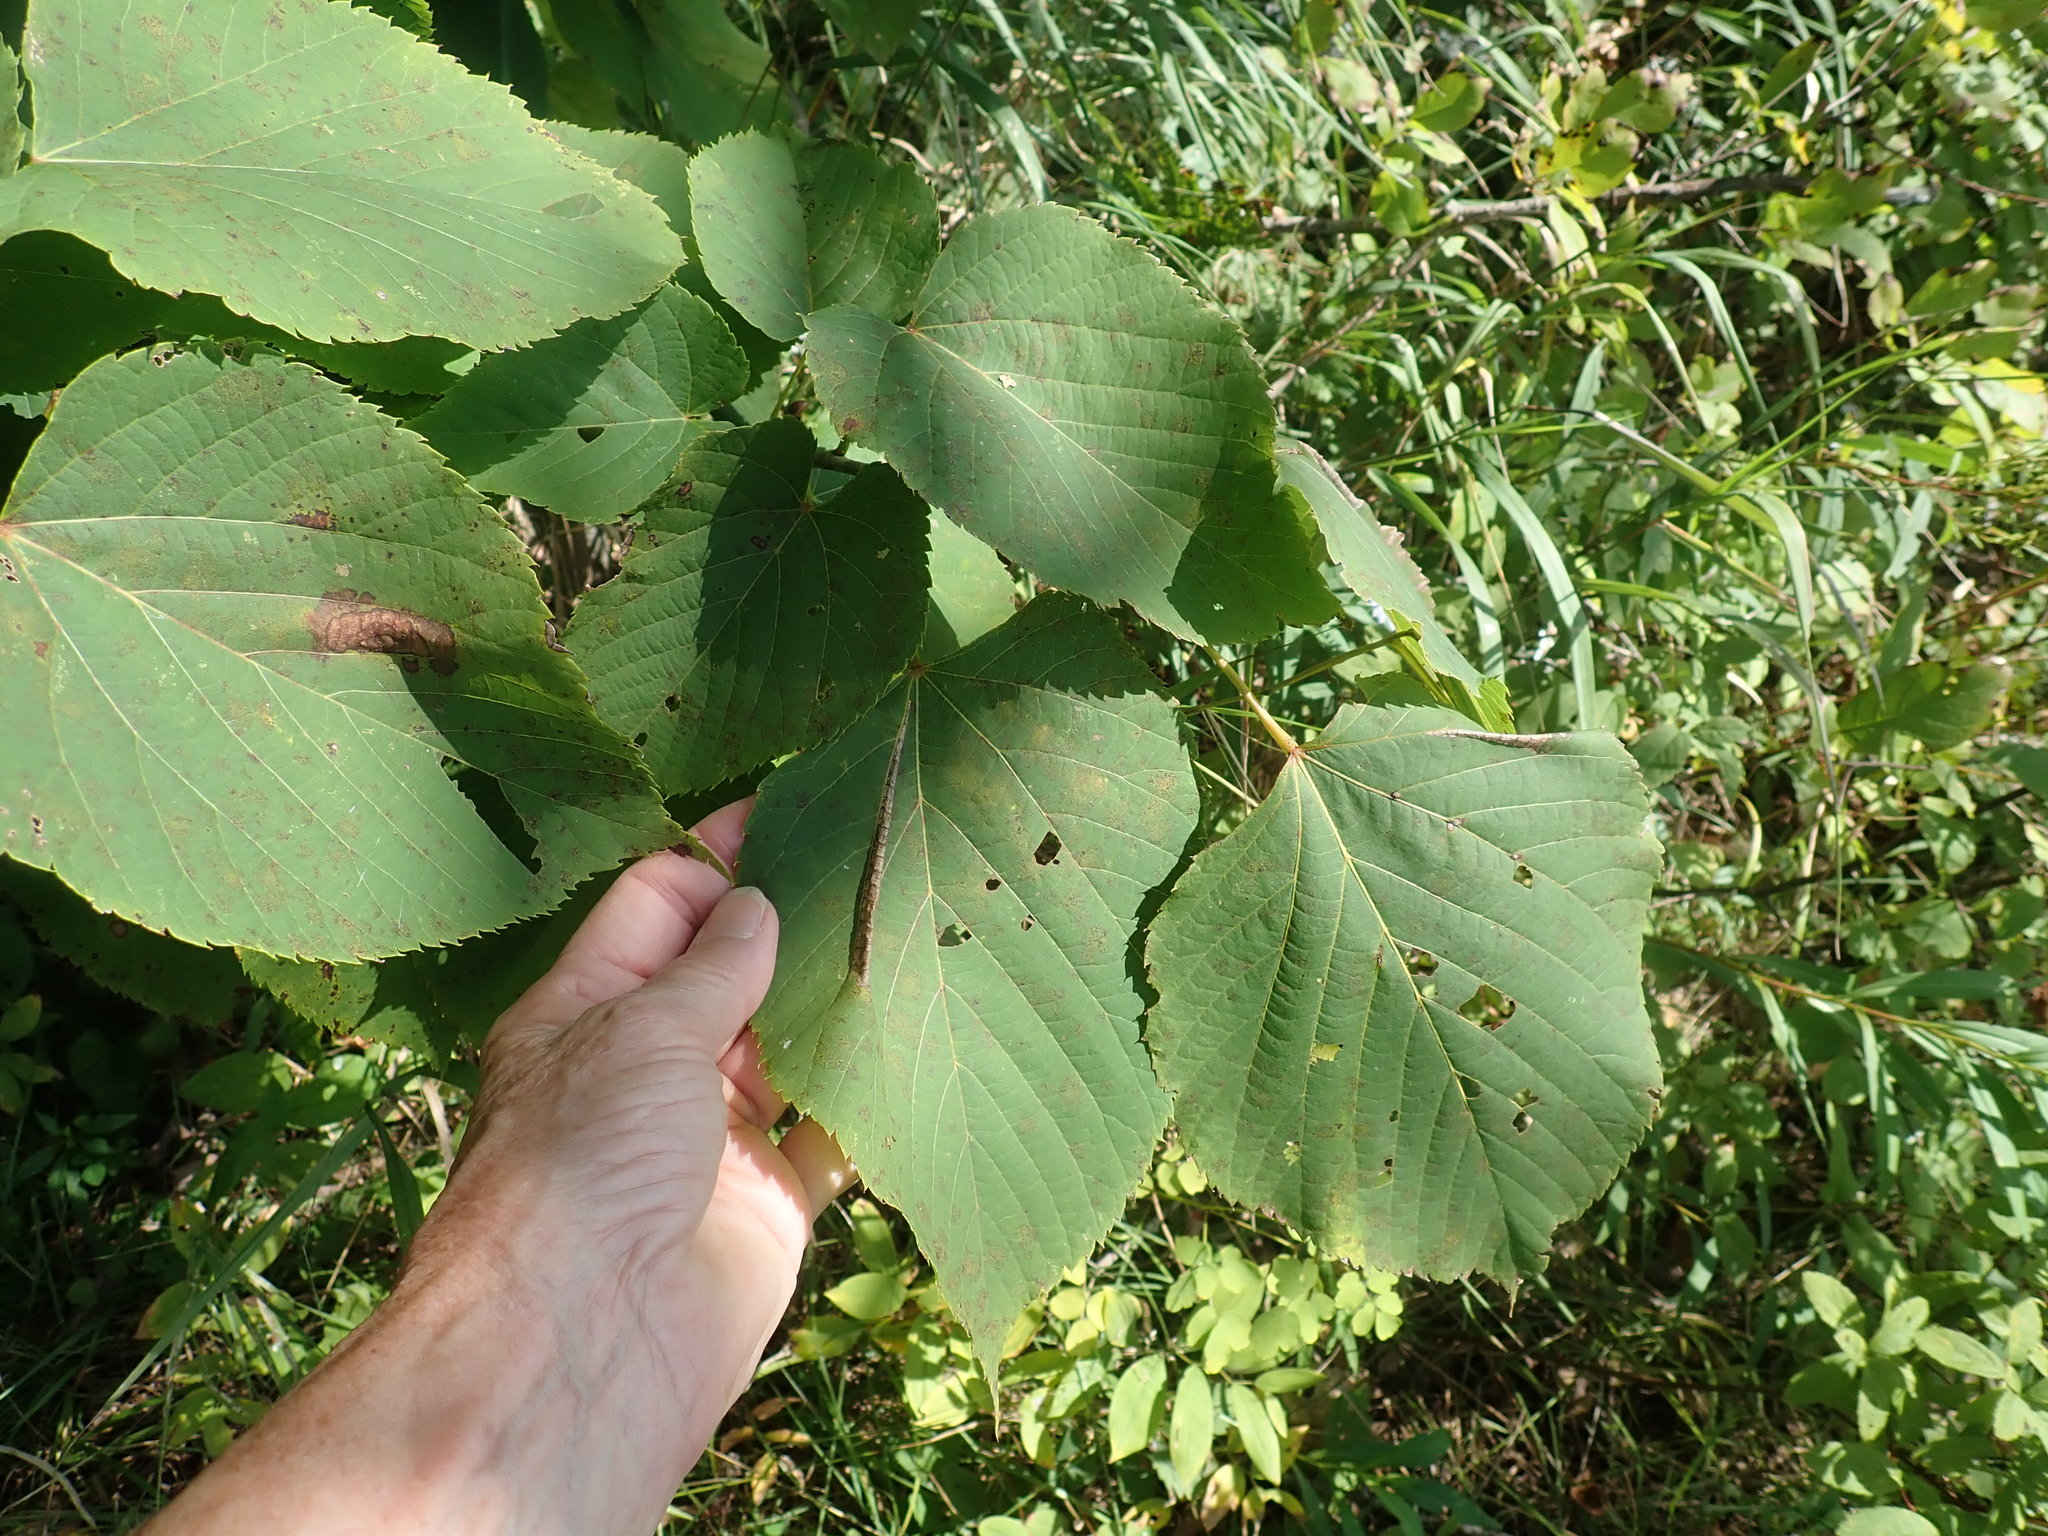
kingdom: Plantae
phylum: Tracheophyta
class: Magnoliopsida
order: Malvales
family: Malvaceae
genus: Tilia
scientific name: Tilia americana
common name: Basswood
